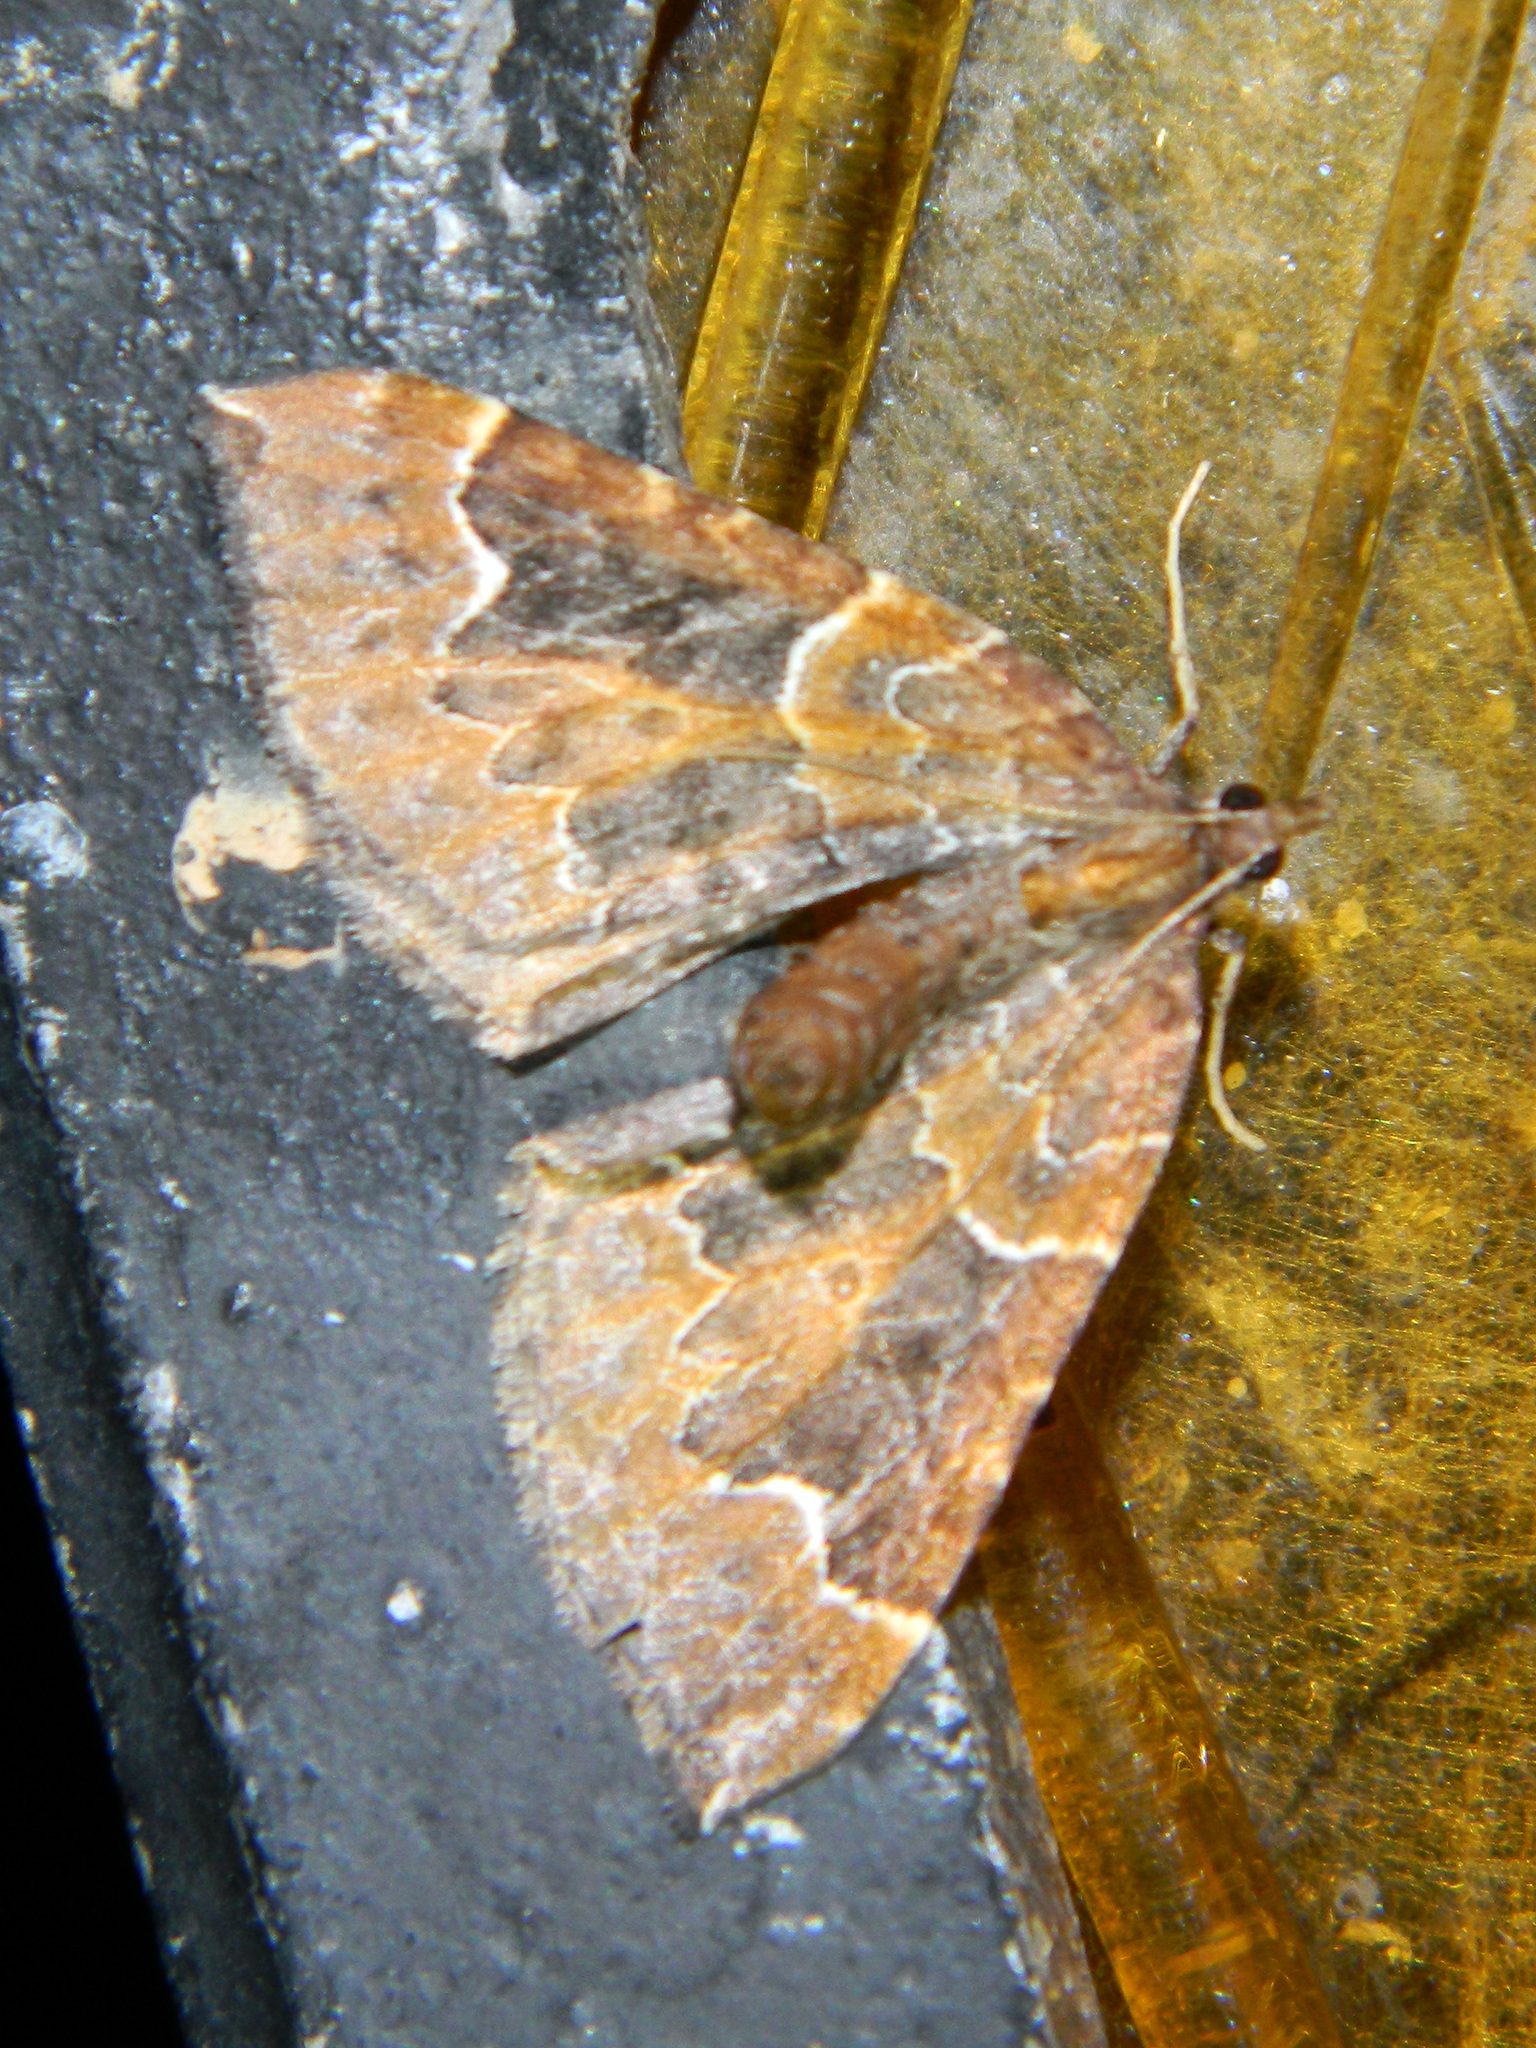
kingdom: Animalia
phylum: Arthropoda
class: Insecta
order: Lepidoptera
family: Geometridae
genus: Eulithis
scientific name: Eulithis flavibrunneata
